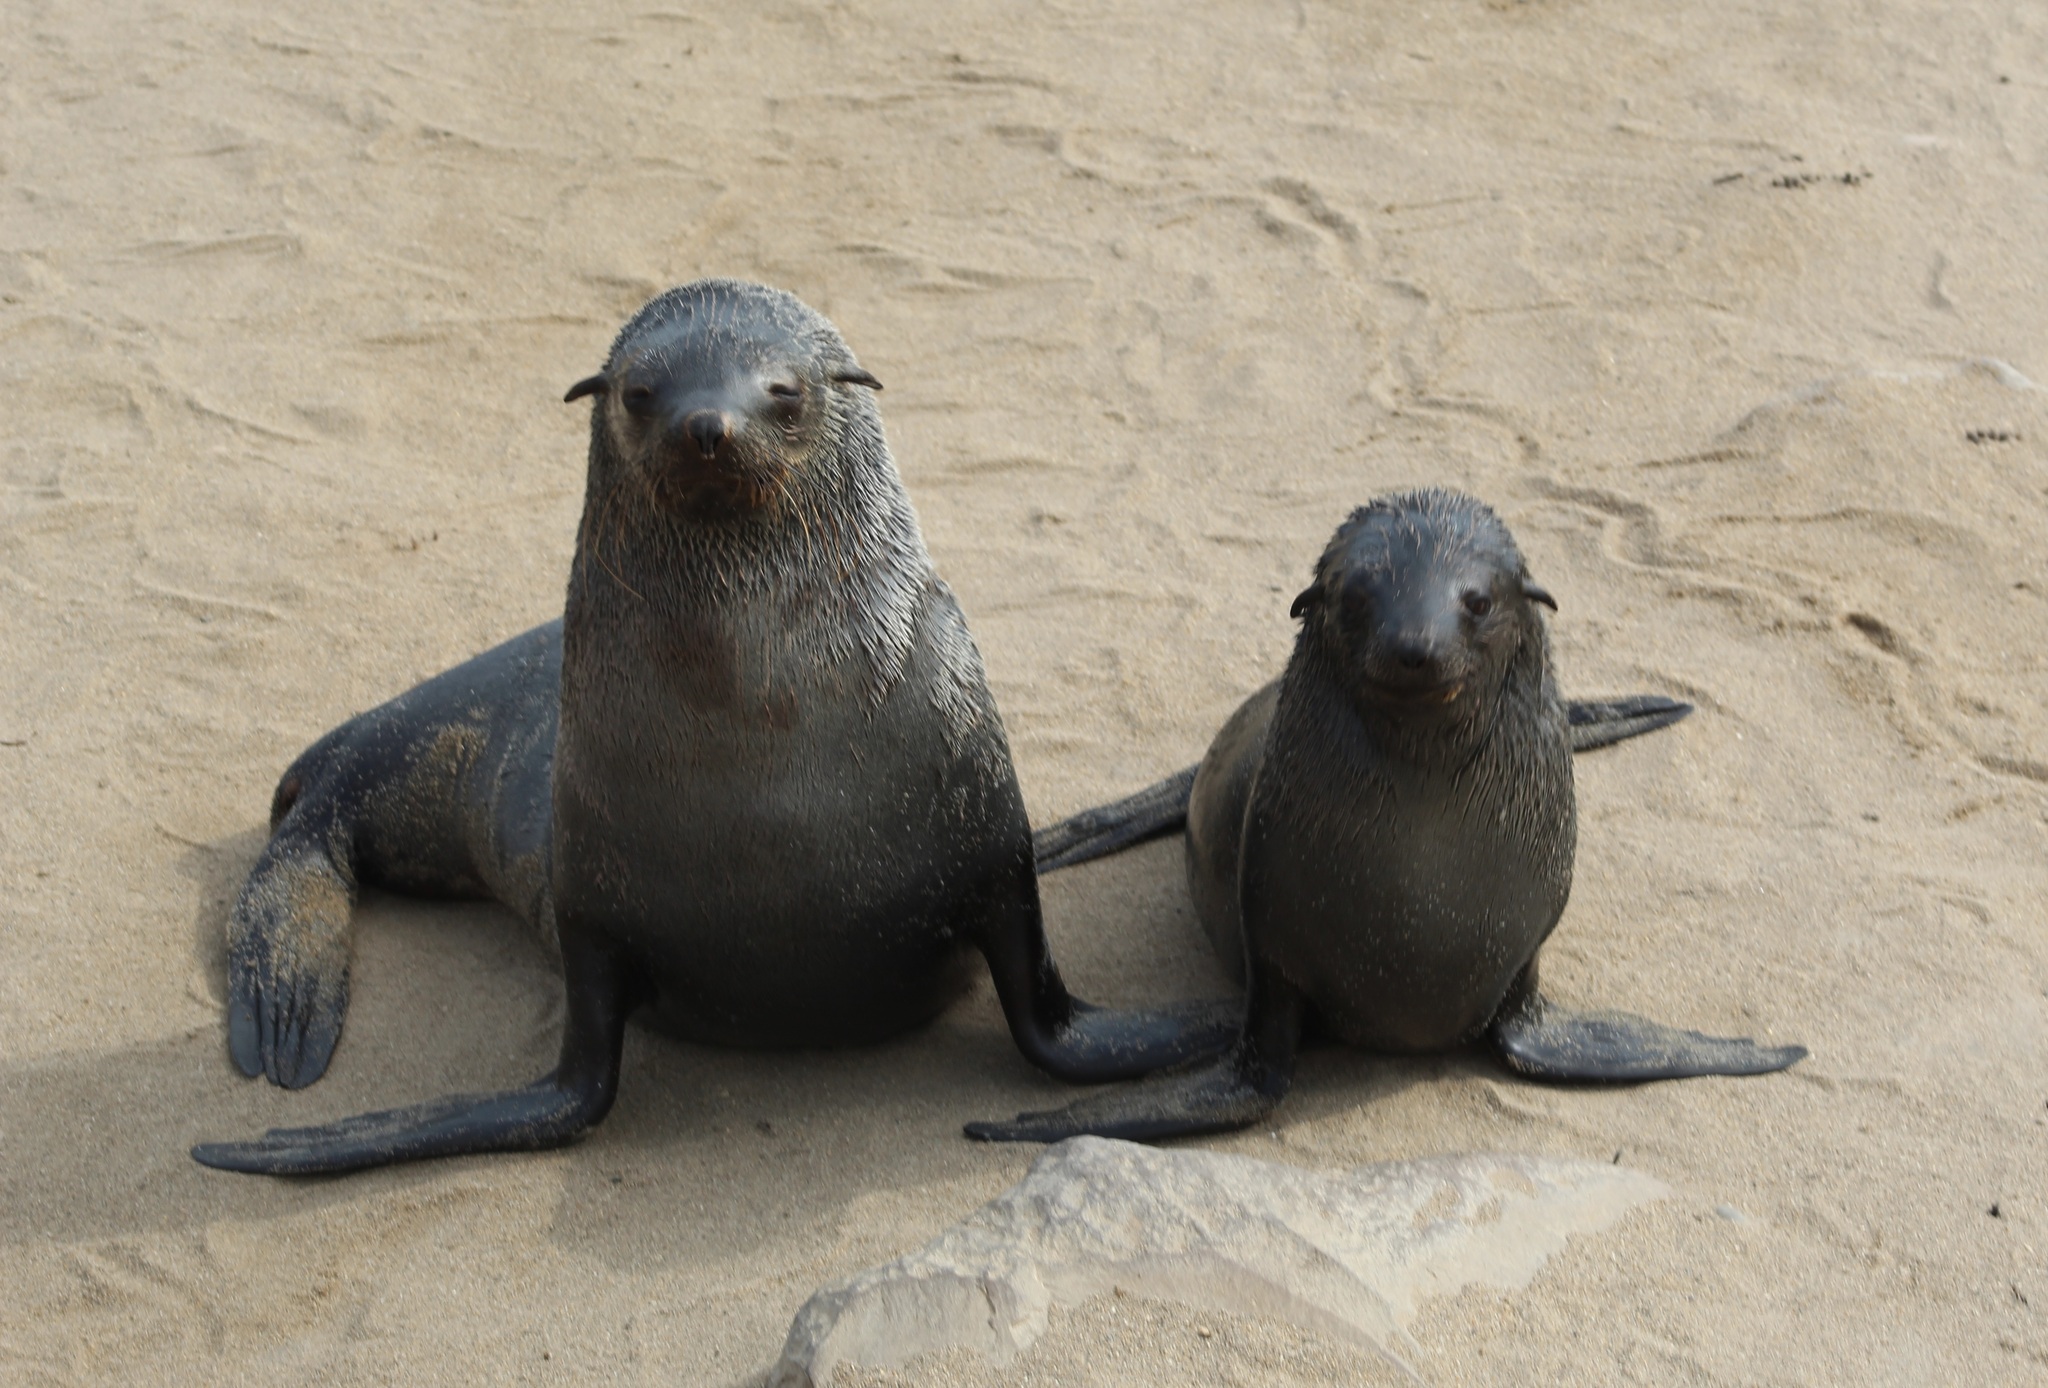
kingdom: Animalia
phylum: Chordata
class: Mammalia
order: Carnivora
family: Otariidae
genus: Arctocephalus
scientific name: Arctocephalus pusillus
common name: Brown fur seal
